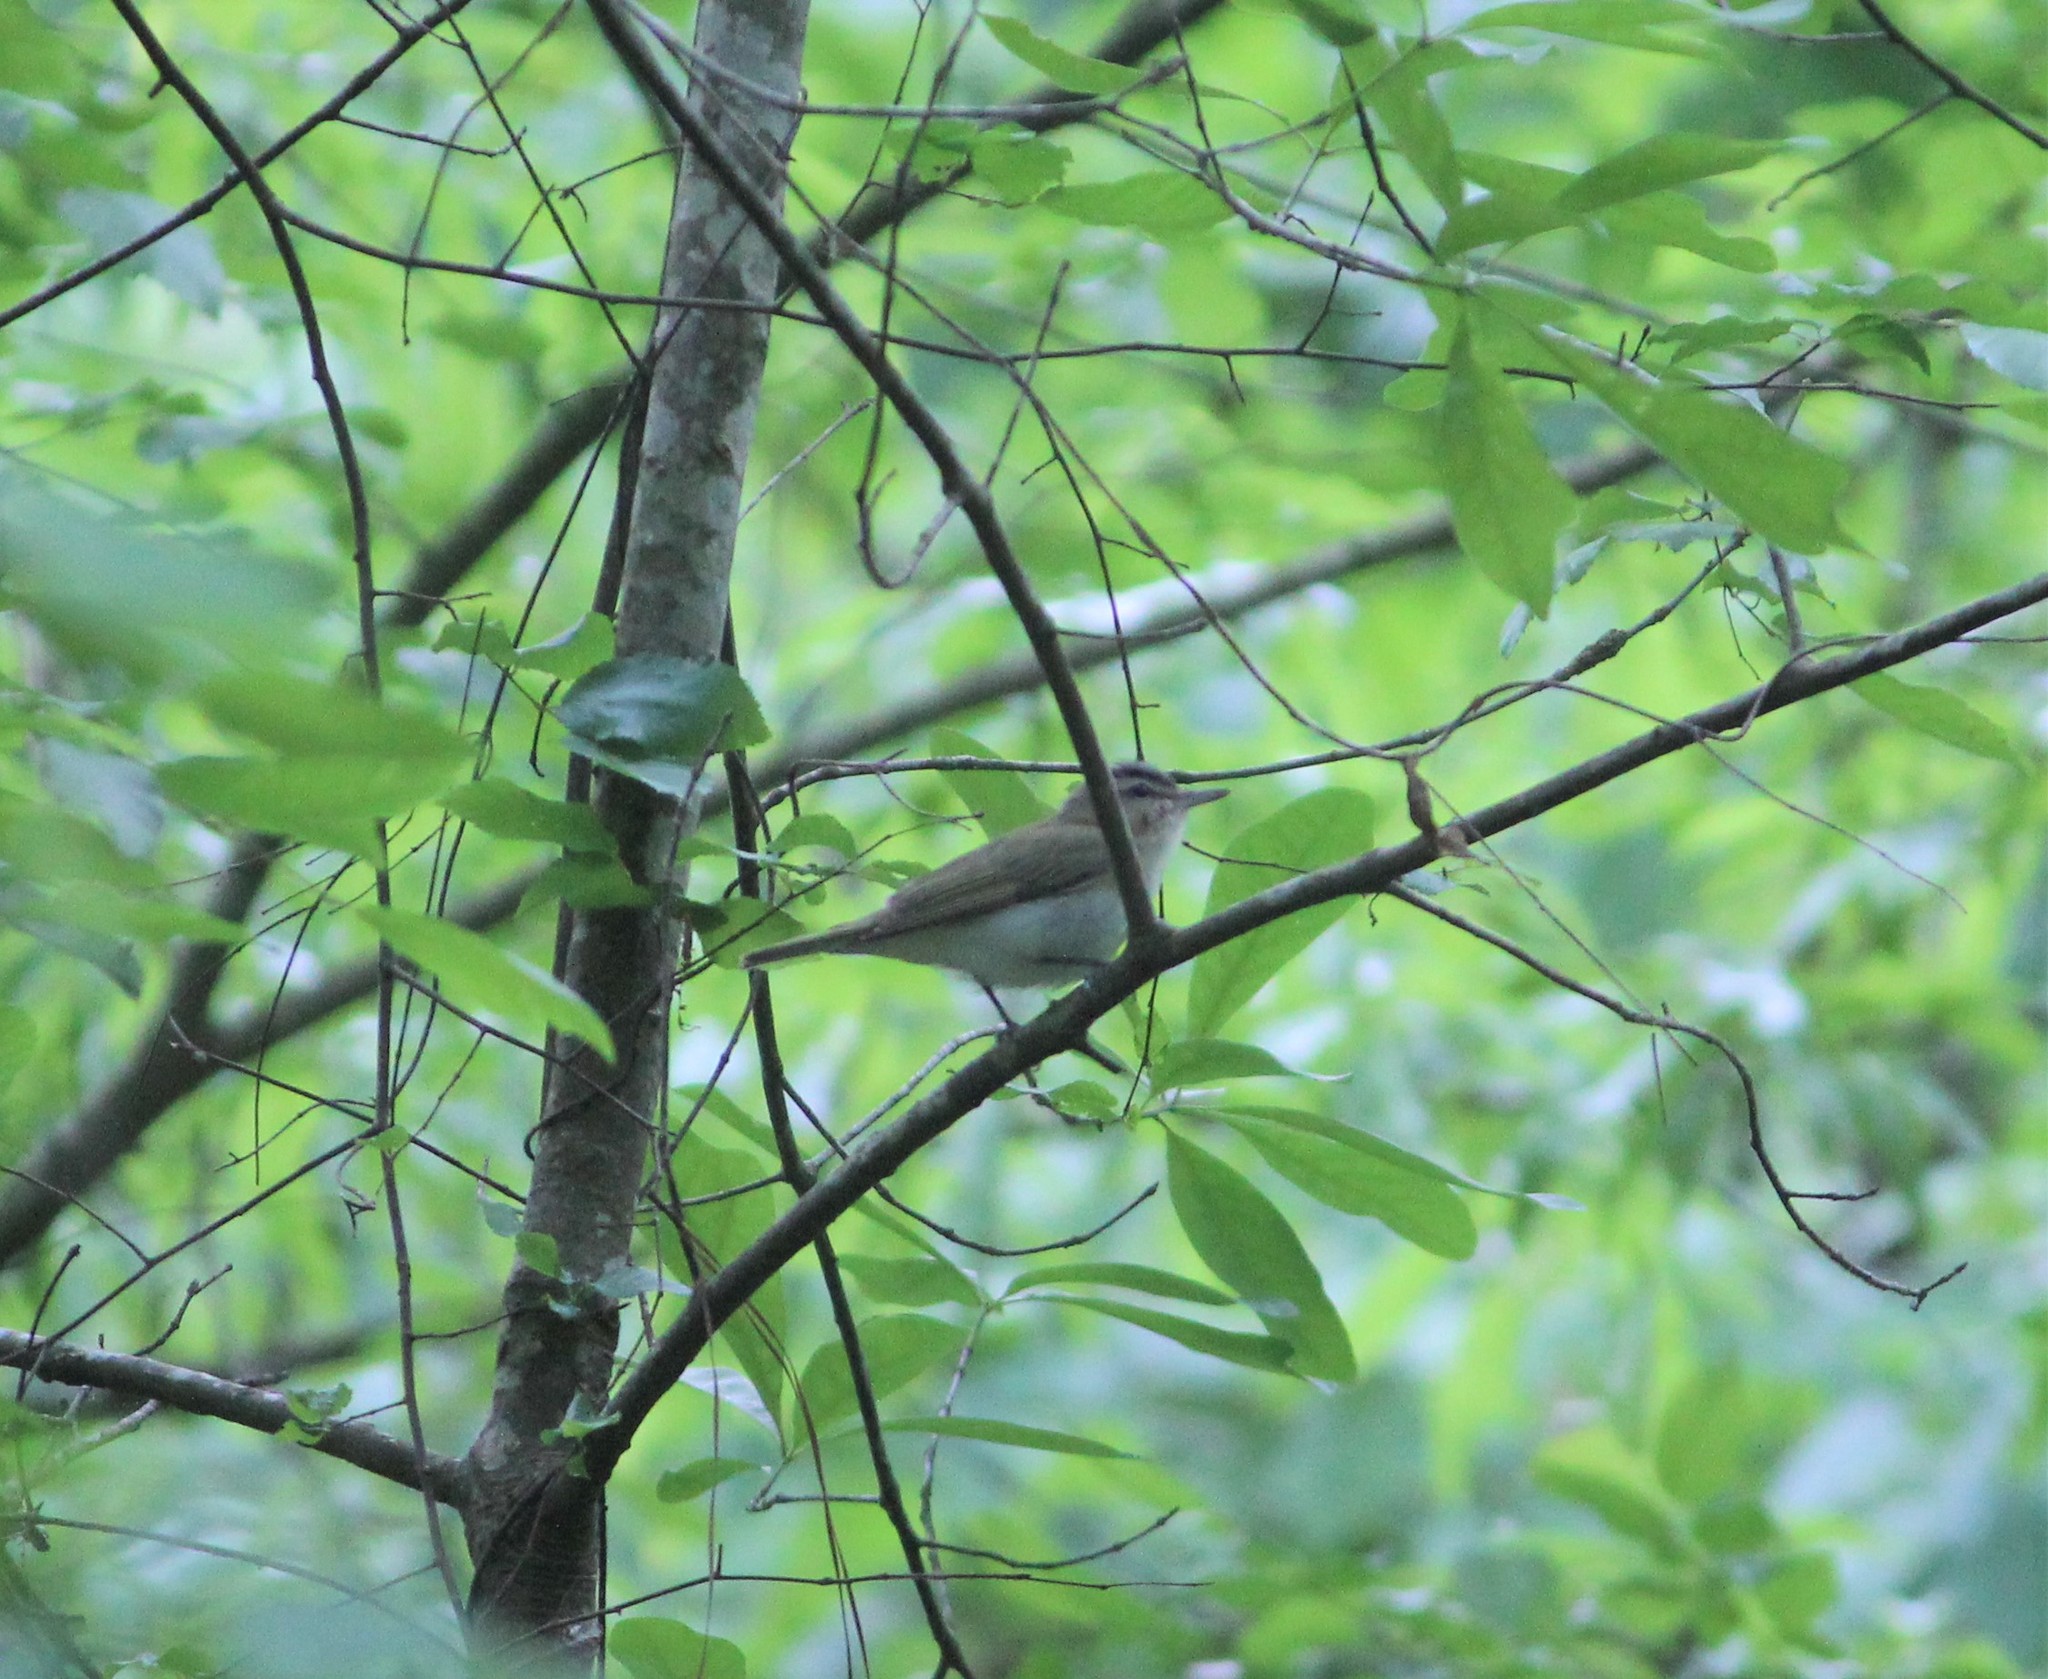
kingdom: Animalia
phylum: Chordata
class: Aves
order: Passeriformes
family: Vireonidae
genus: Vireo
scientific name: Vireo olivaceus
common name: Red-eyed vireo
